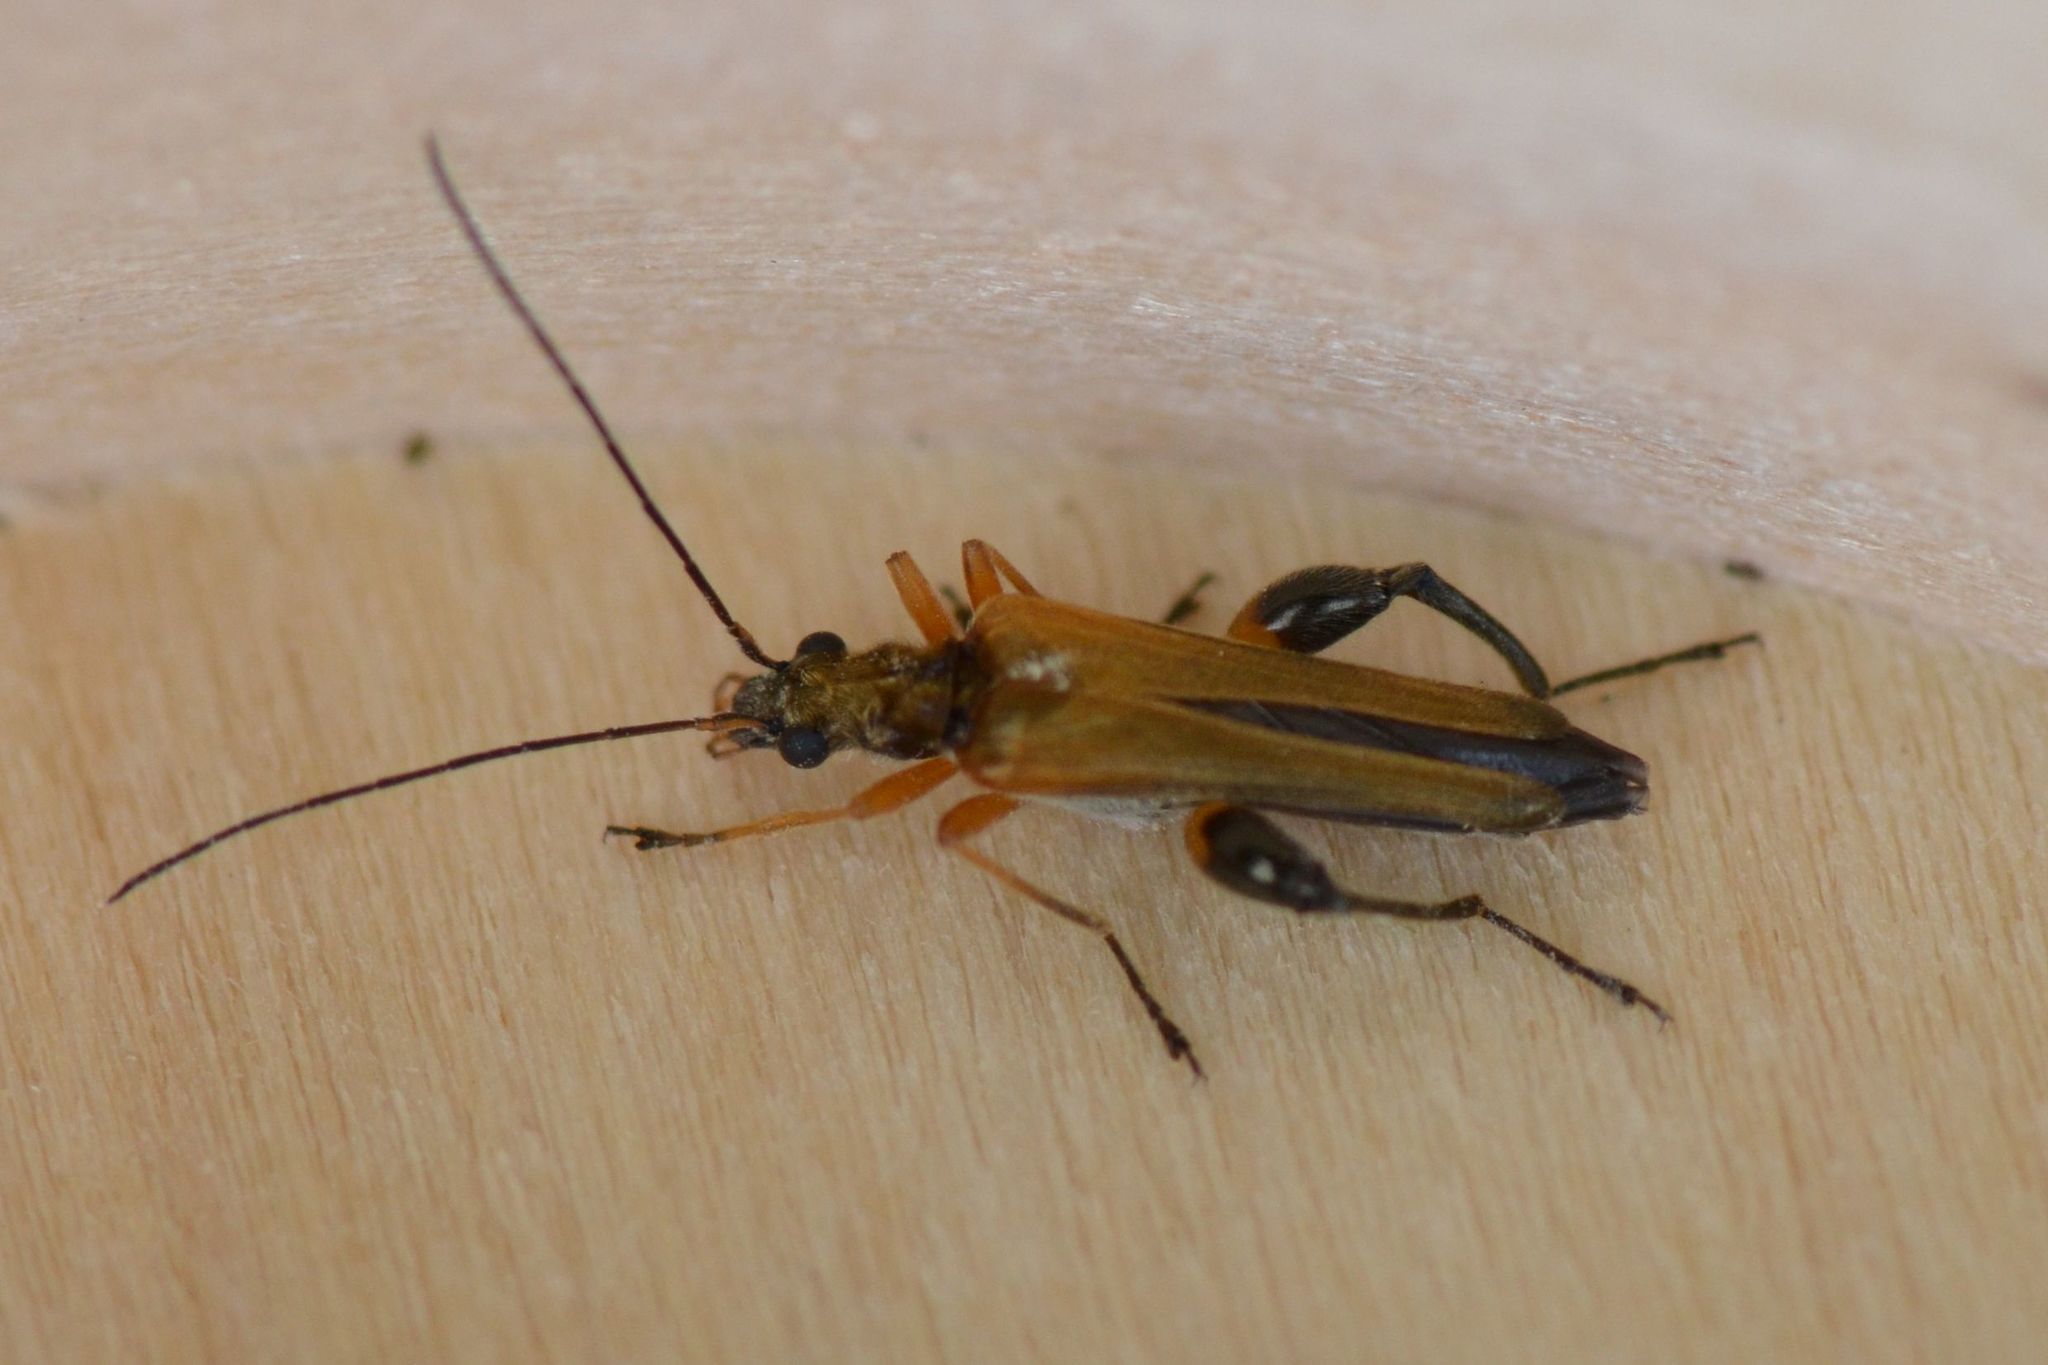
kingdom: Animalia
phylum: Arthropoda
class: Insecta
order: Coleoptera
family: Oedemeridae
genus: Oedemera
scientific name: Oedemera podagrariae
